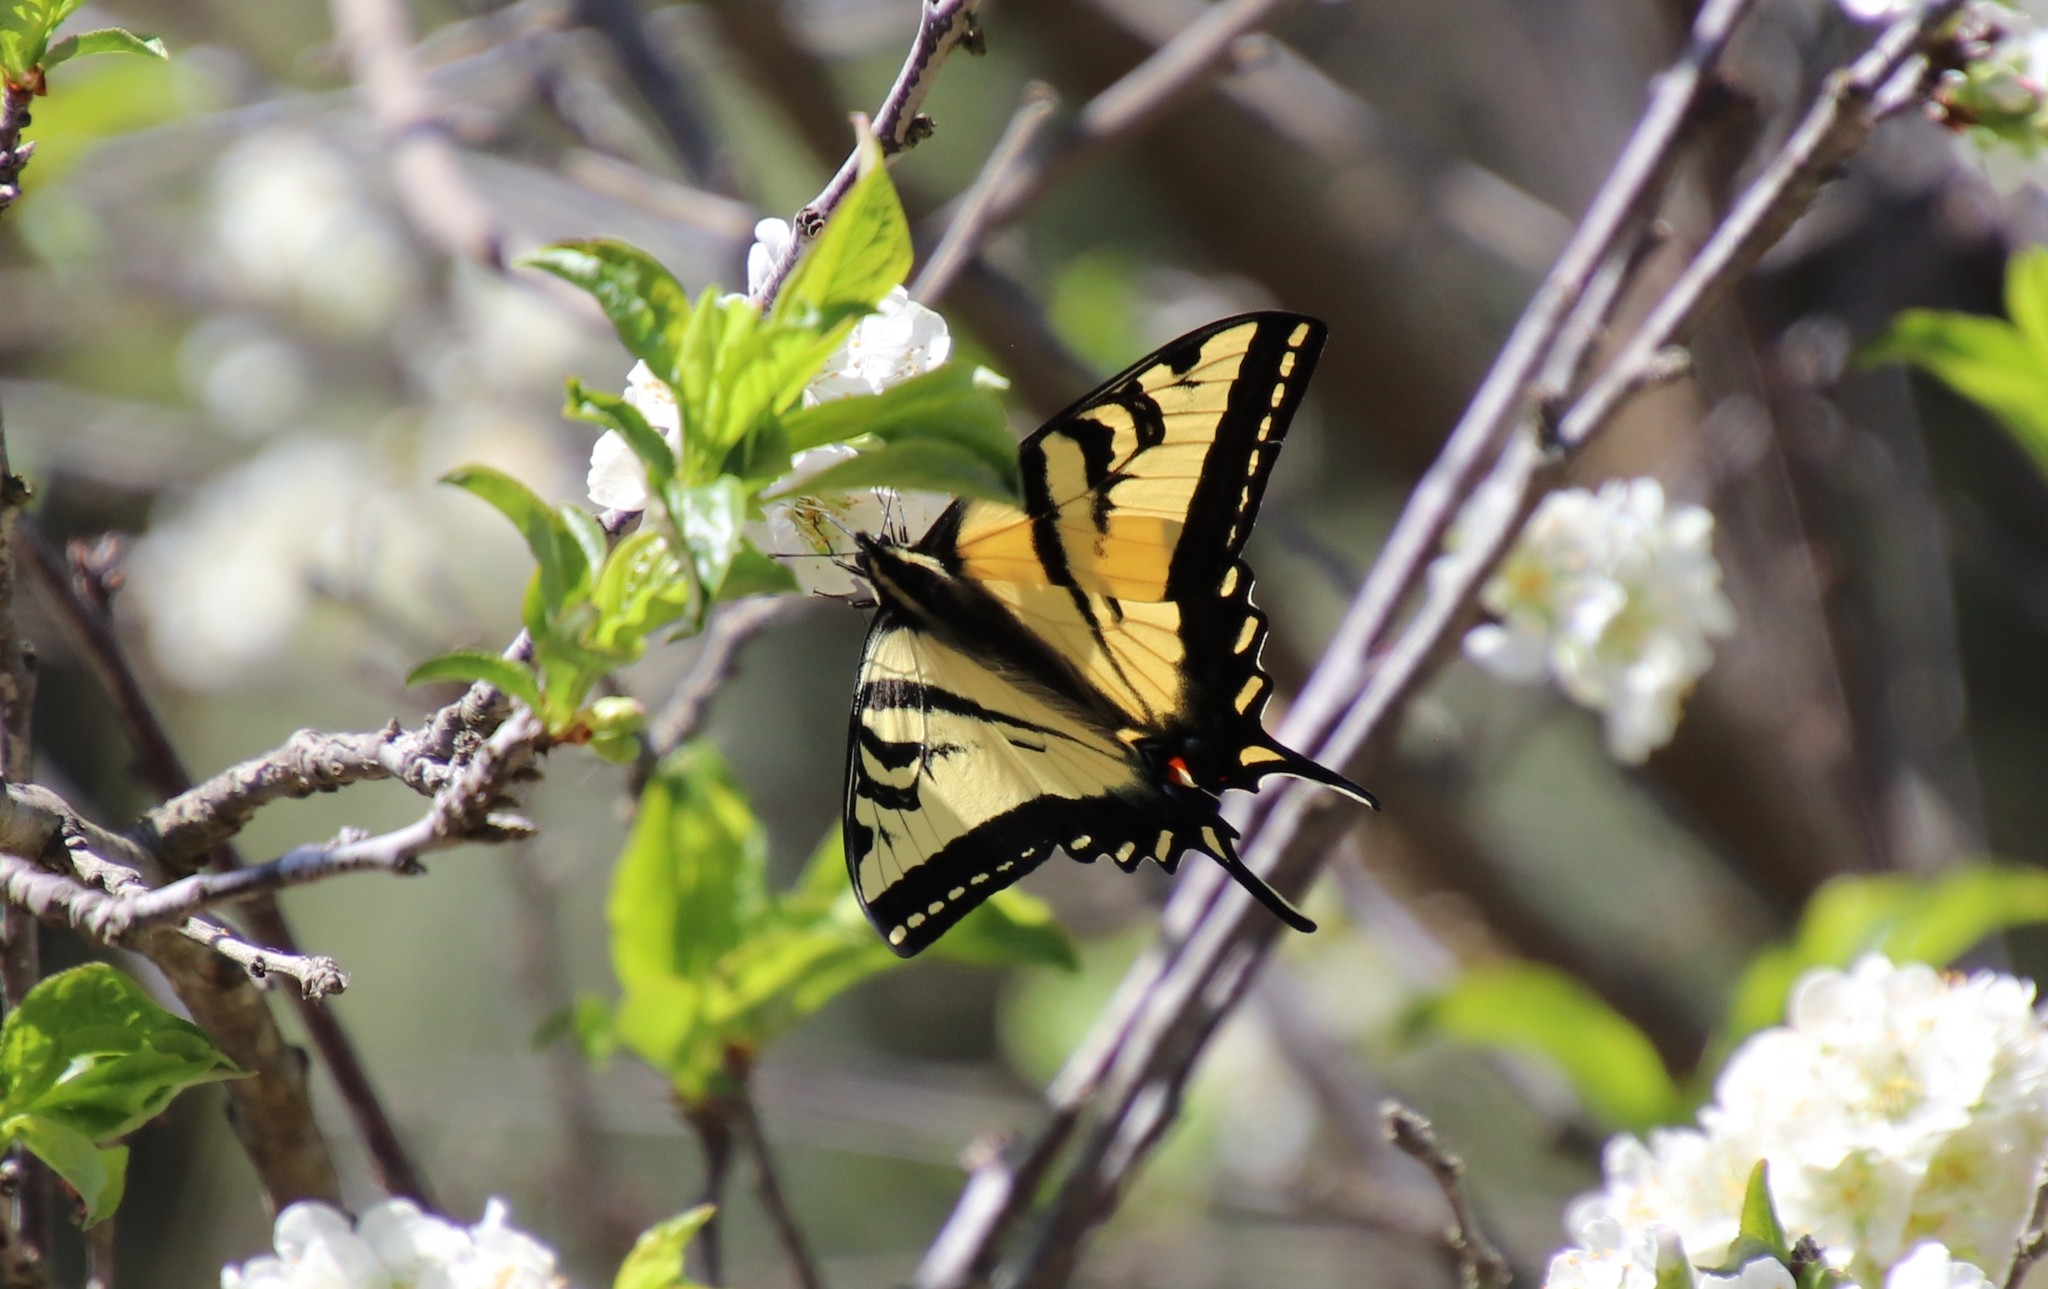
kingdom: Animalia
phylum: Arthropoda
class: Insecta
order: Lepidoptera
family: Papilionidae
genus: Papilio
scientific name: Papilio rutulus
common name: Western tiger swallowtail
